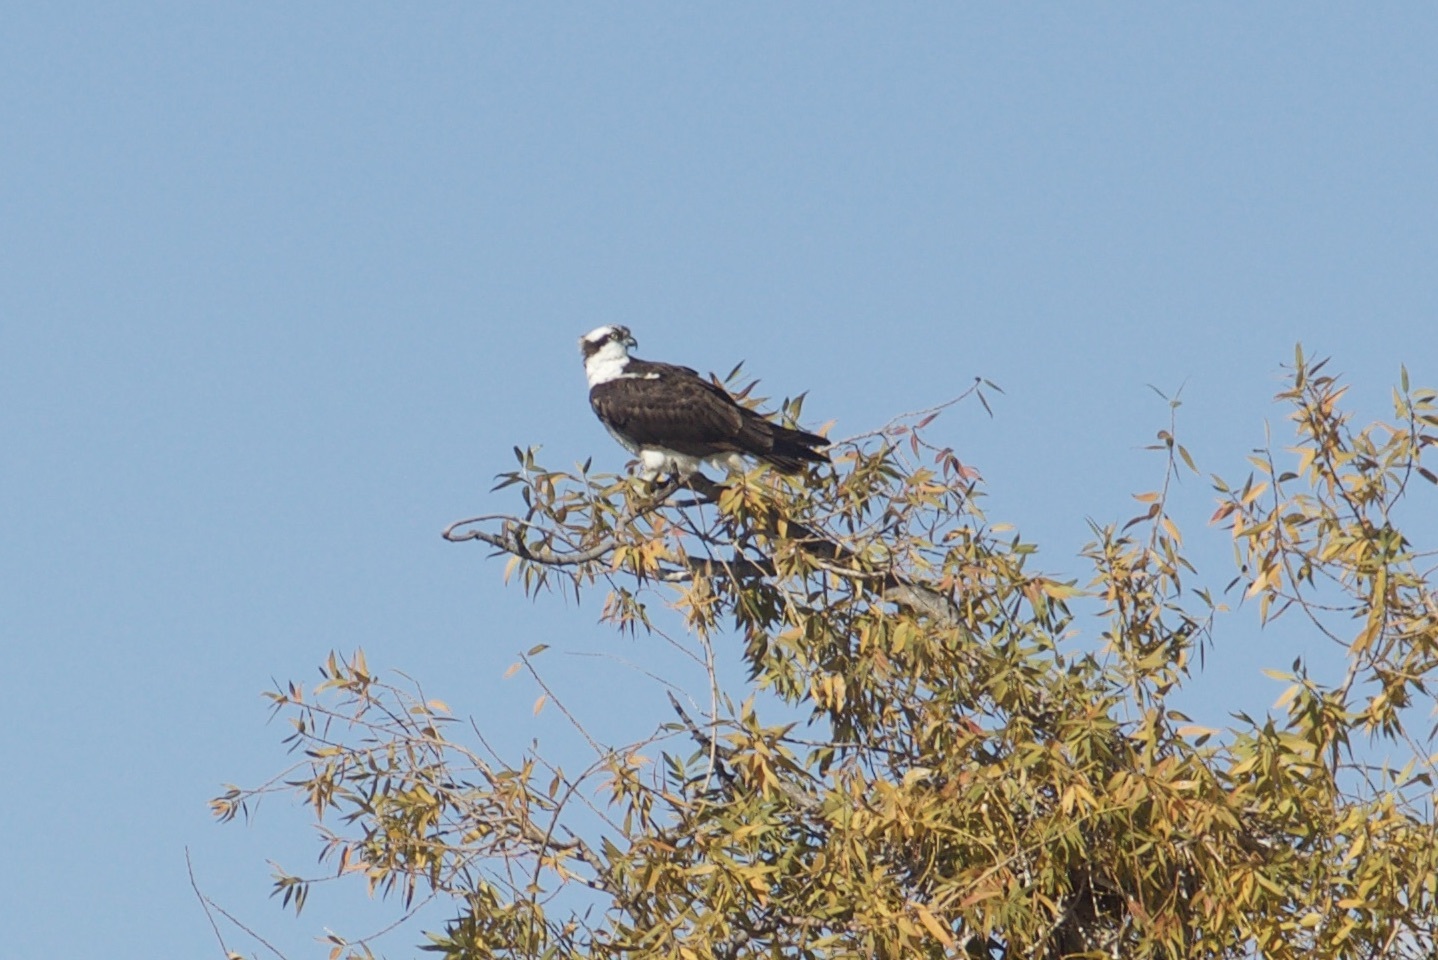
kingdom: Animalia
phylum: Chordata
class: Aves
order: Accipitriformes
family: Pandionidae
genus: Pandion
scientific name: Pandion haliaetus
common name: Osprey
